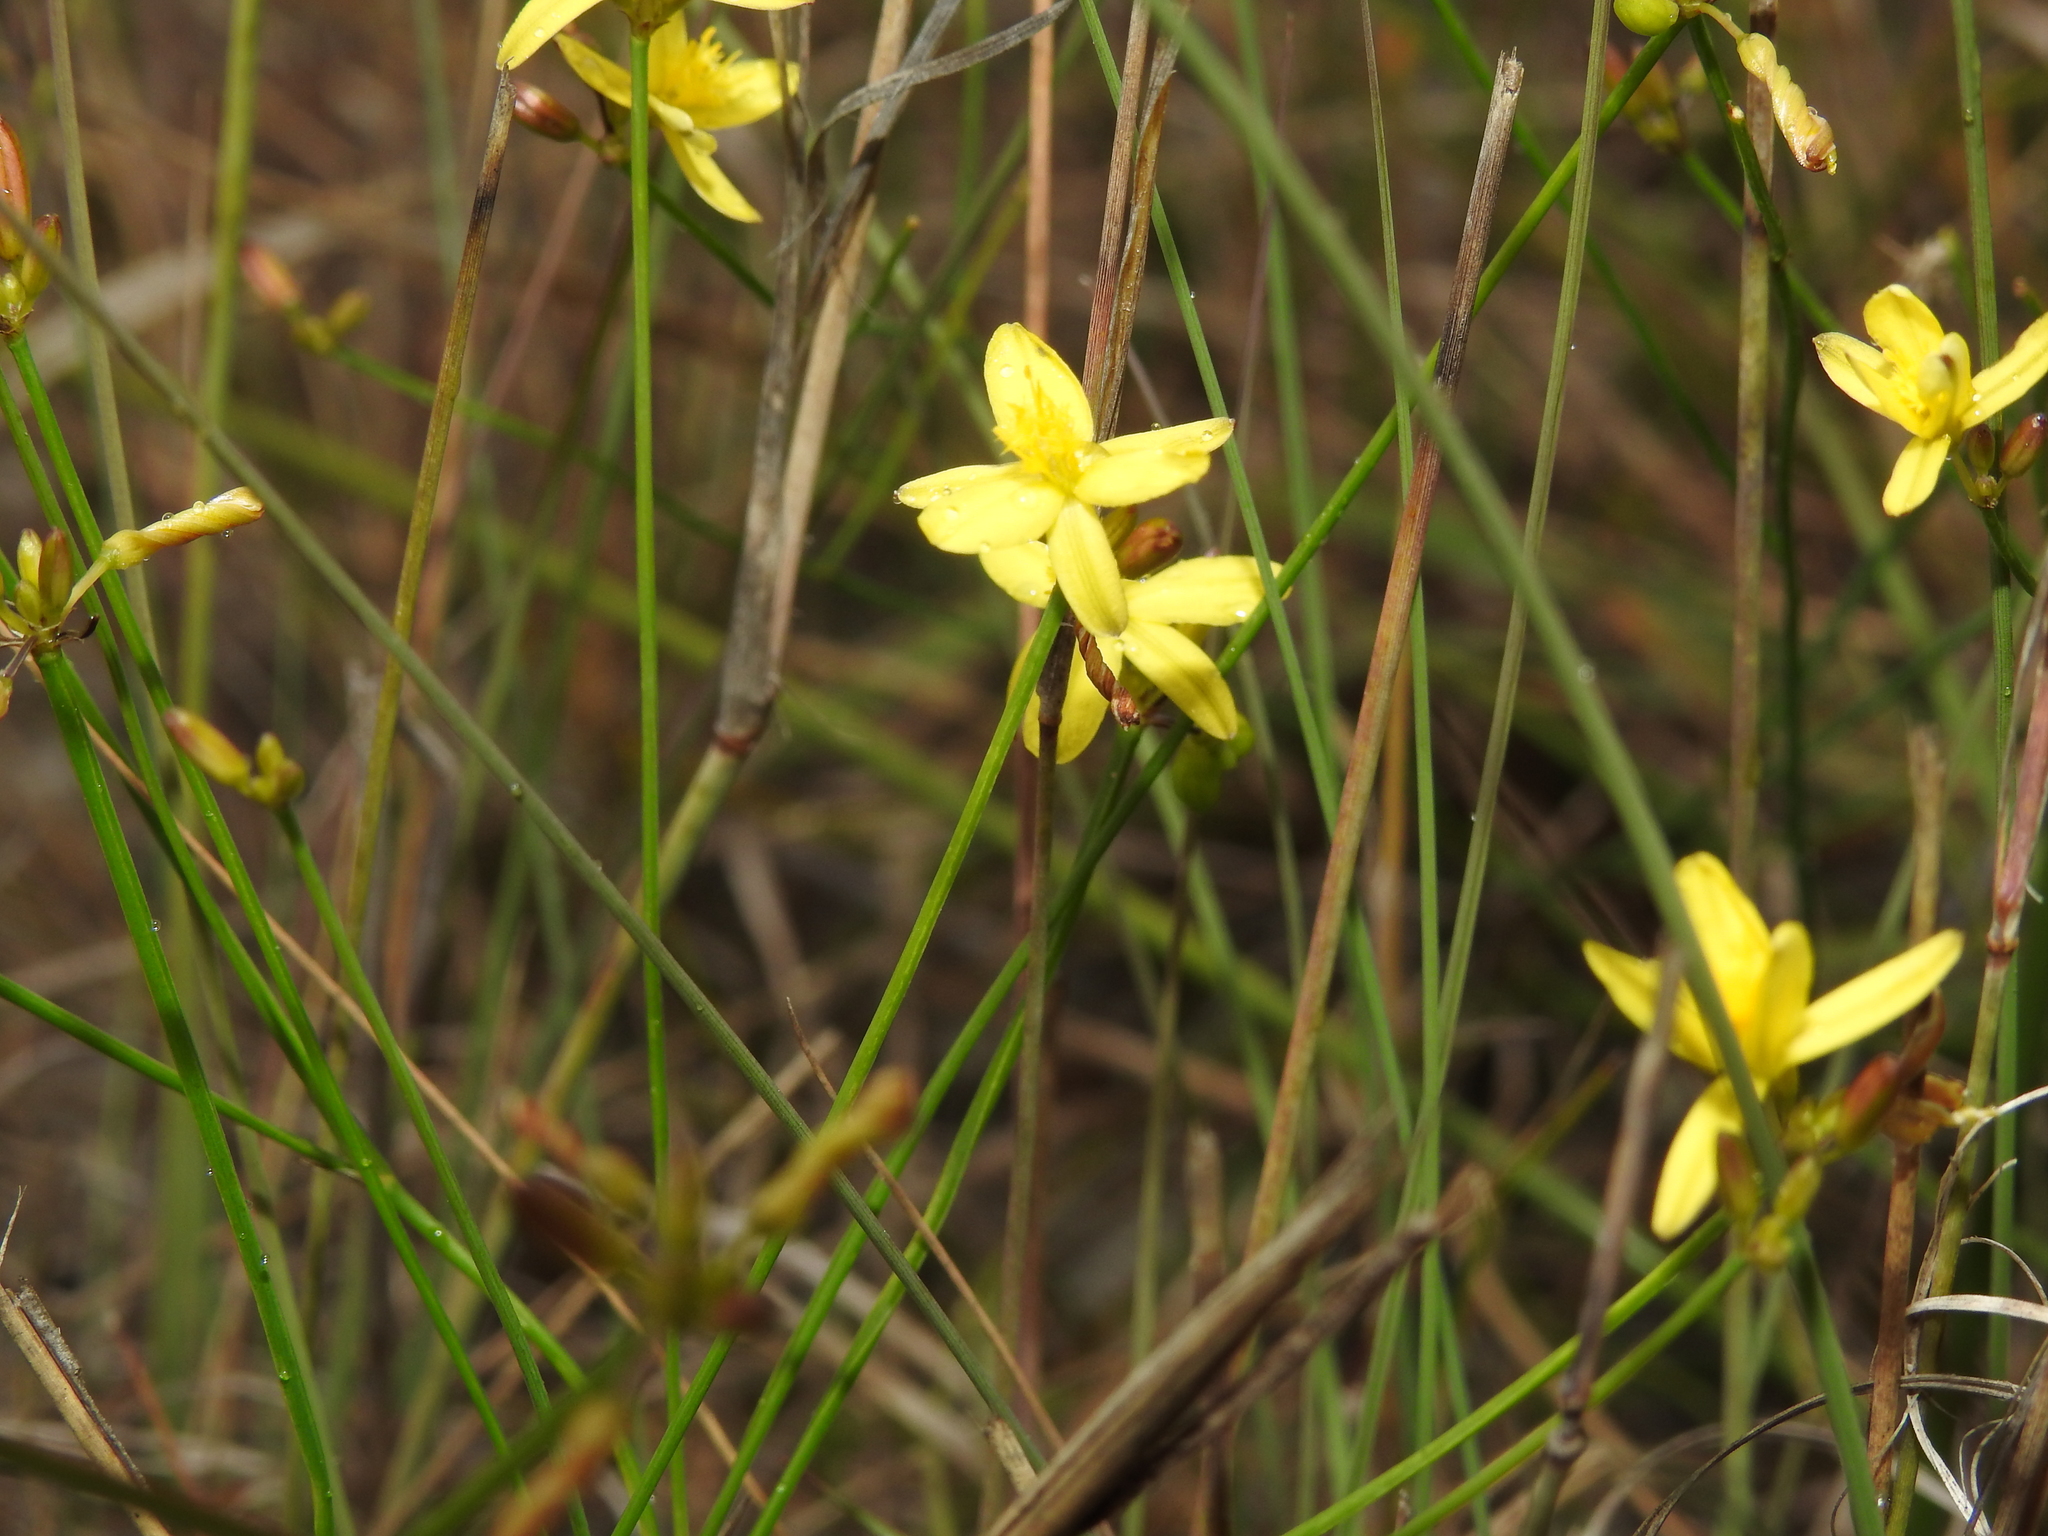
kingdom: Plantae
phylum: Tracheophyta
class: Liliopsida
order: Asparagales
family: Asphodelaceae
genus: Tricoryne
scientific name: Tricoryne elatior
